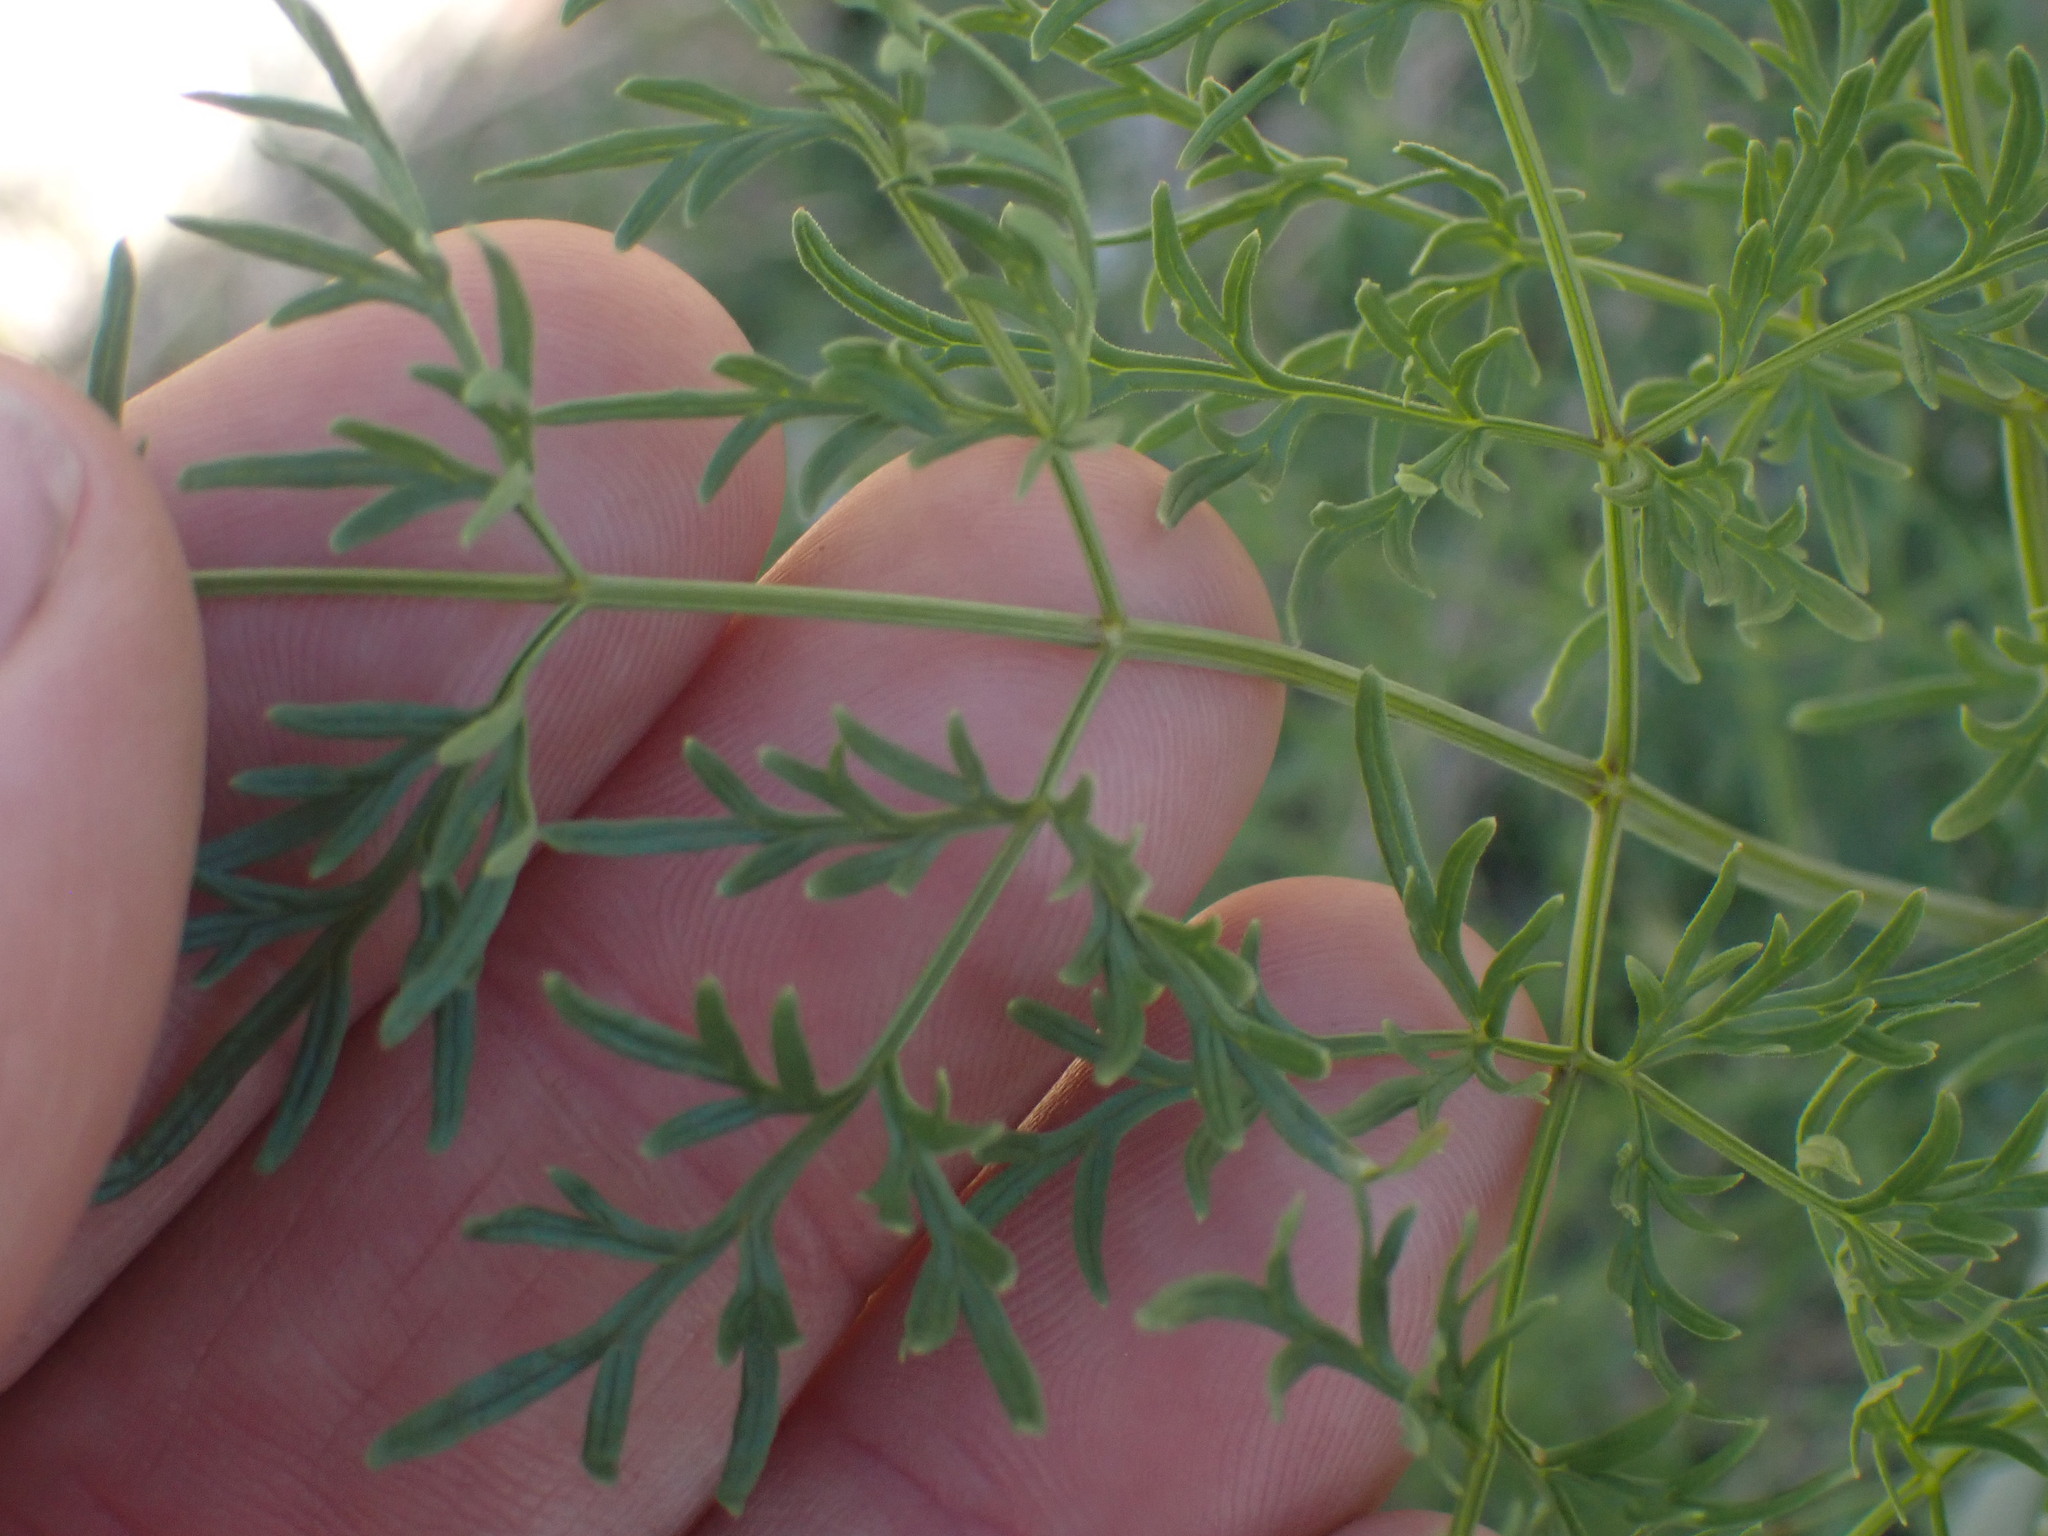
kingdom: Plantae
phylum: Tracheophyta
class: Magnoliopsida
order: Apiales
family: Apiaceae
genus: Lomatium
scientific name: Lomatium multifidum
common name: Carrot-leaved biscuitroot
